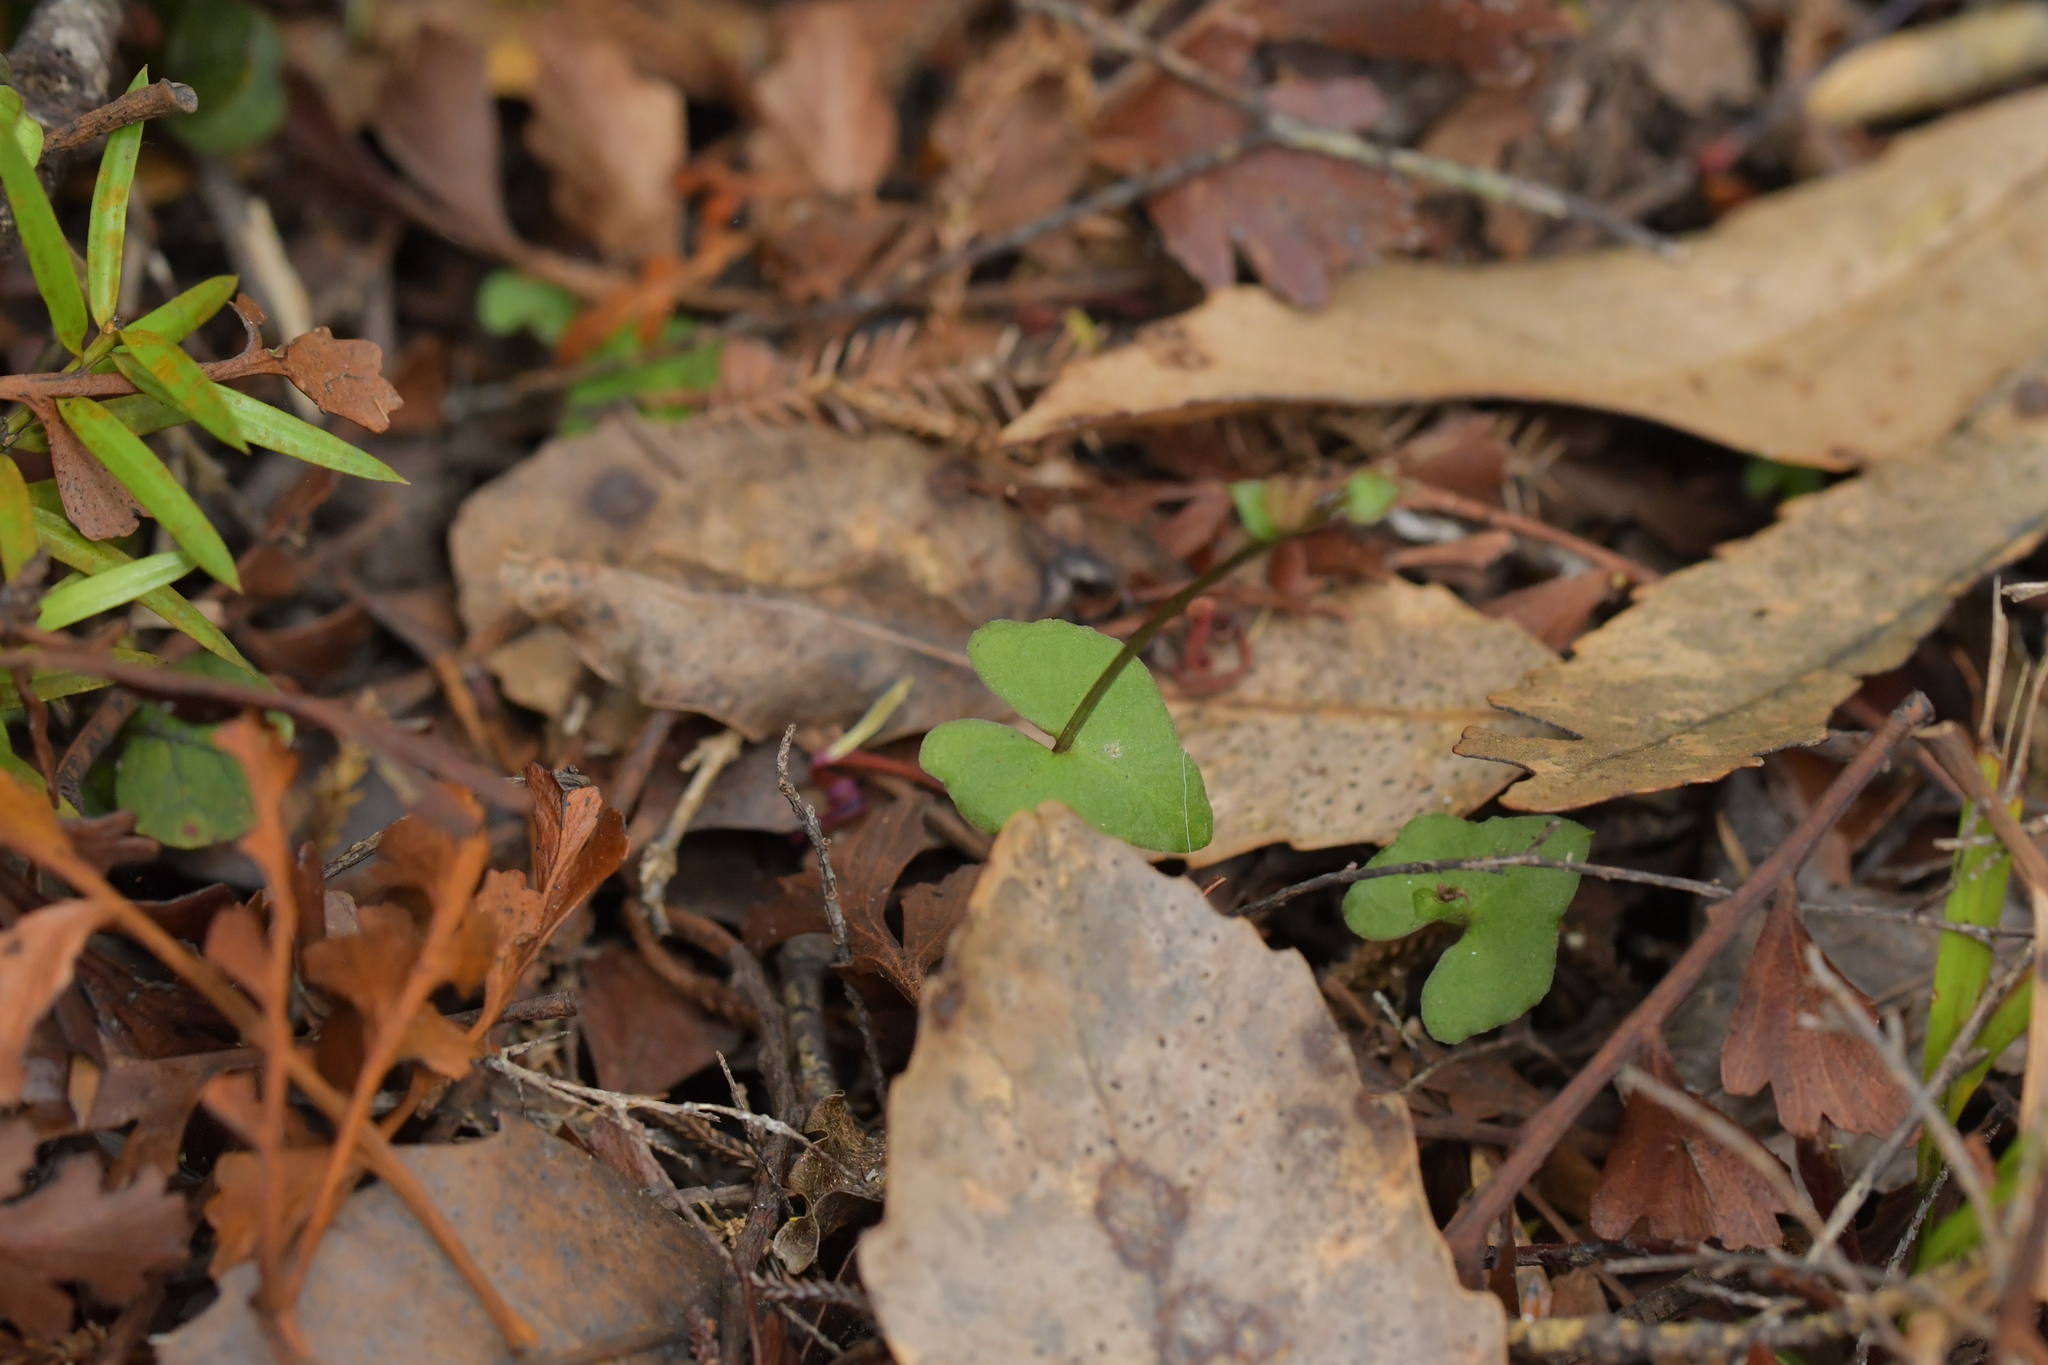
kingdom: Plantae
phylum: Tracheophyta
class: Liliopsida
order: Asparagales
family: Orchidaceae
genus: Acianthus
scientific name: Acianthus sinclairii
